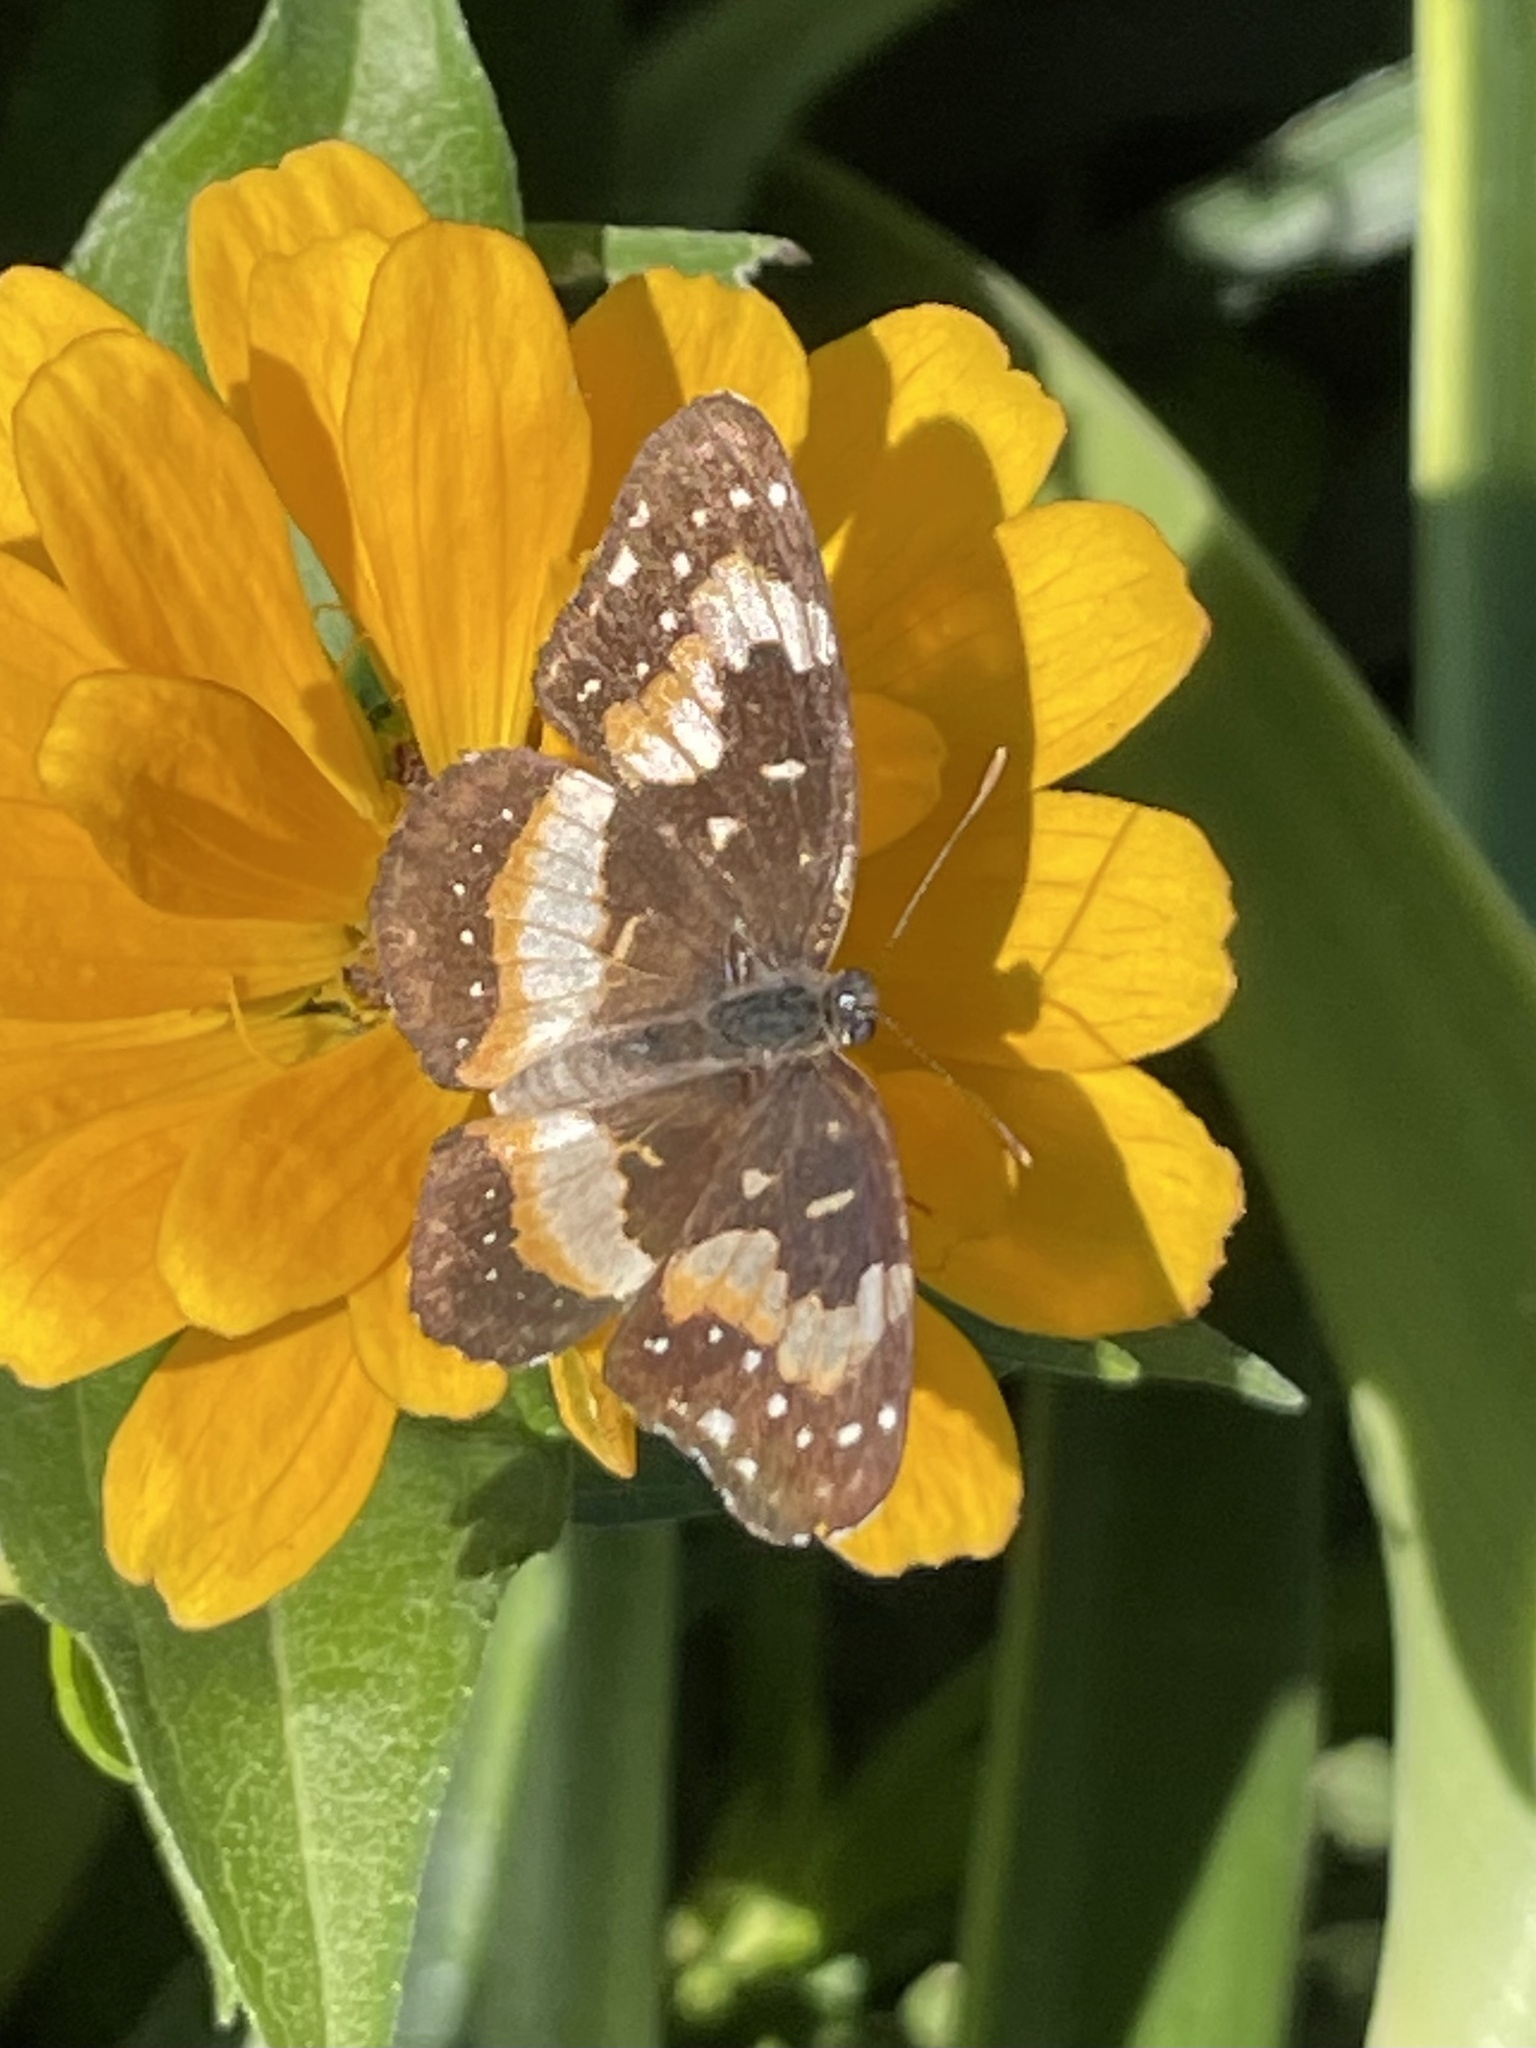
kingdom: Animalia
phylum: Arthropoda
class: Insecta
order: Lepidoptera
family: Nymphalidae
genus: Chlosyne
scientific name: Chlosyne lacinia
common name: Bordered patch
